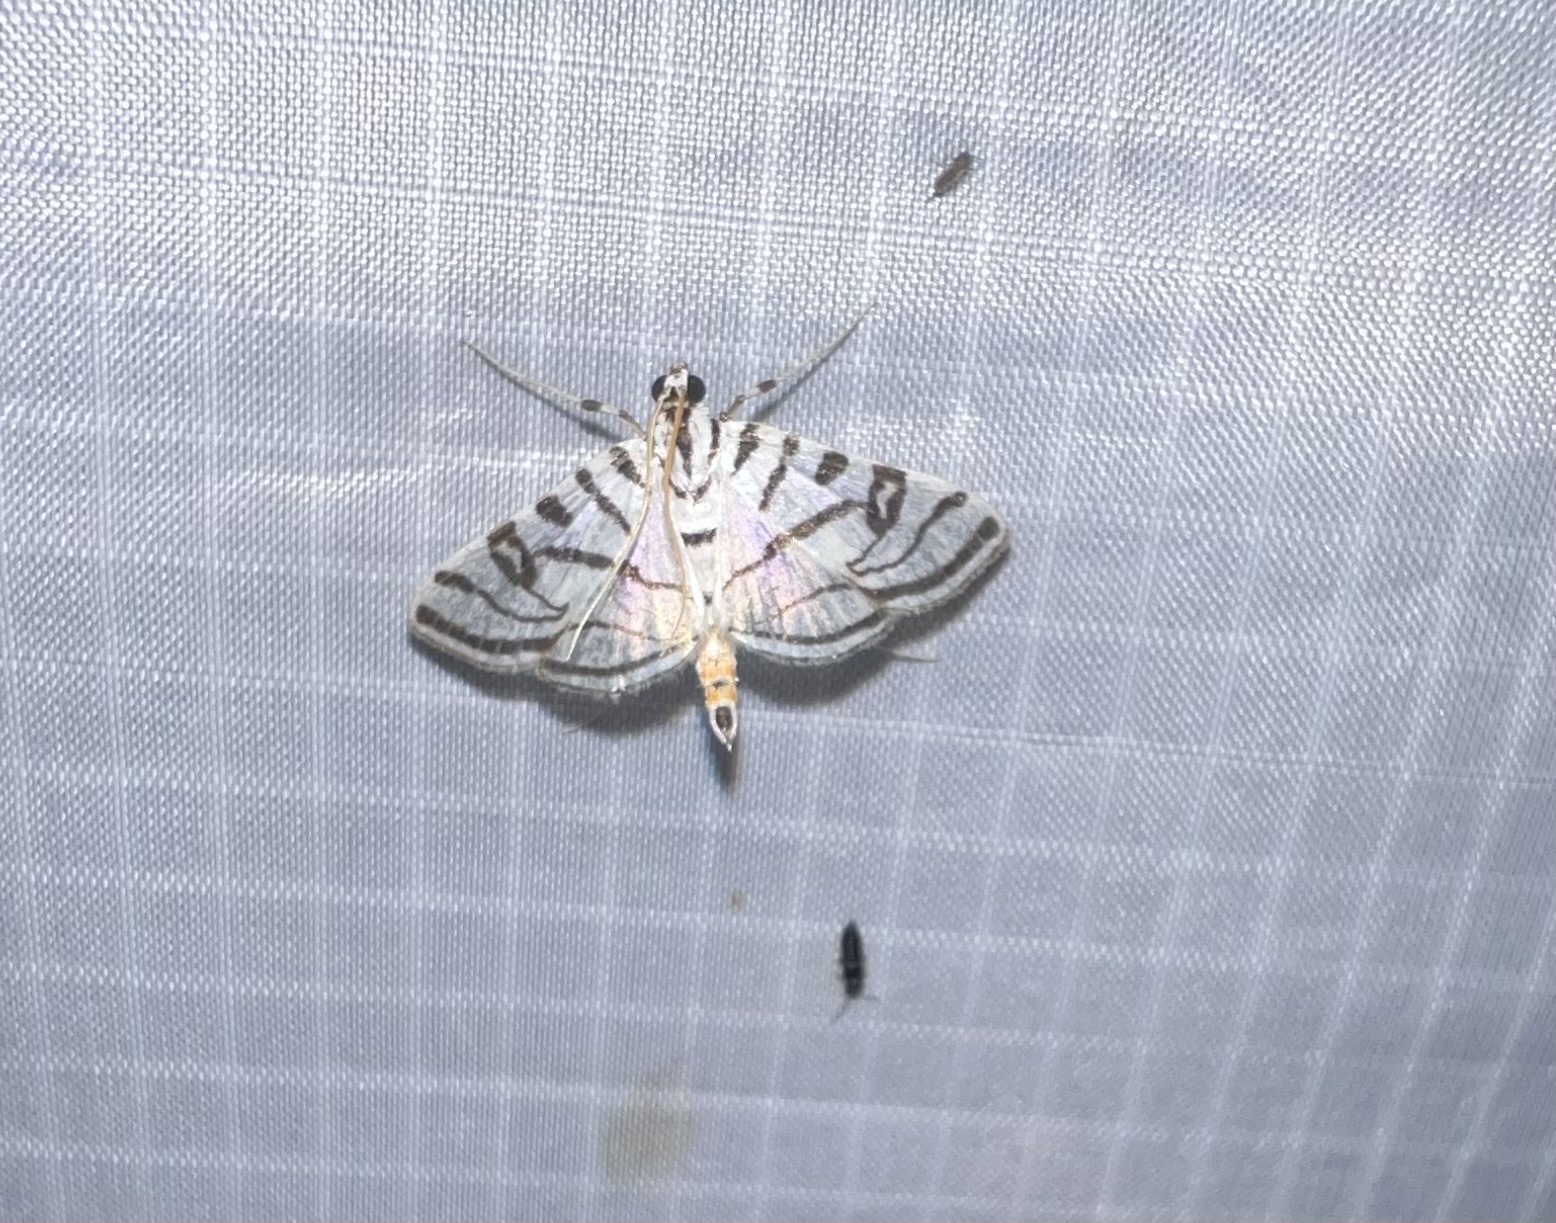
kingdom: Animalia
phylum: Arthropoda
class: Insecta
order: Lepidoptera
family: Crambidae
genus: Conchylodes
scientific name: Conchylodes ovulalis
